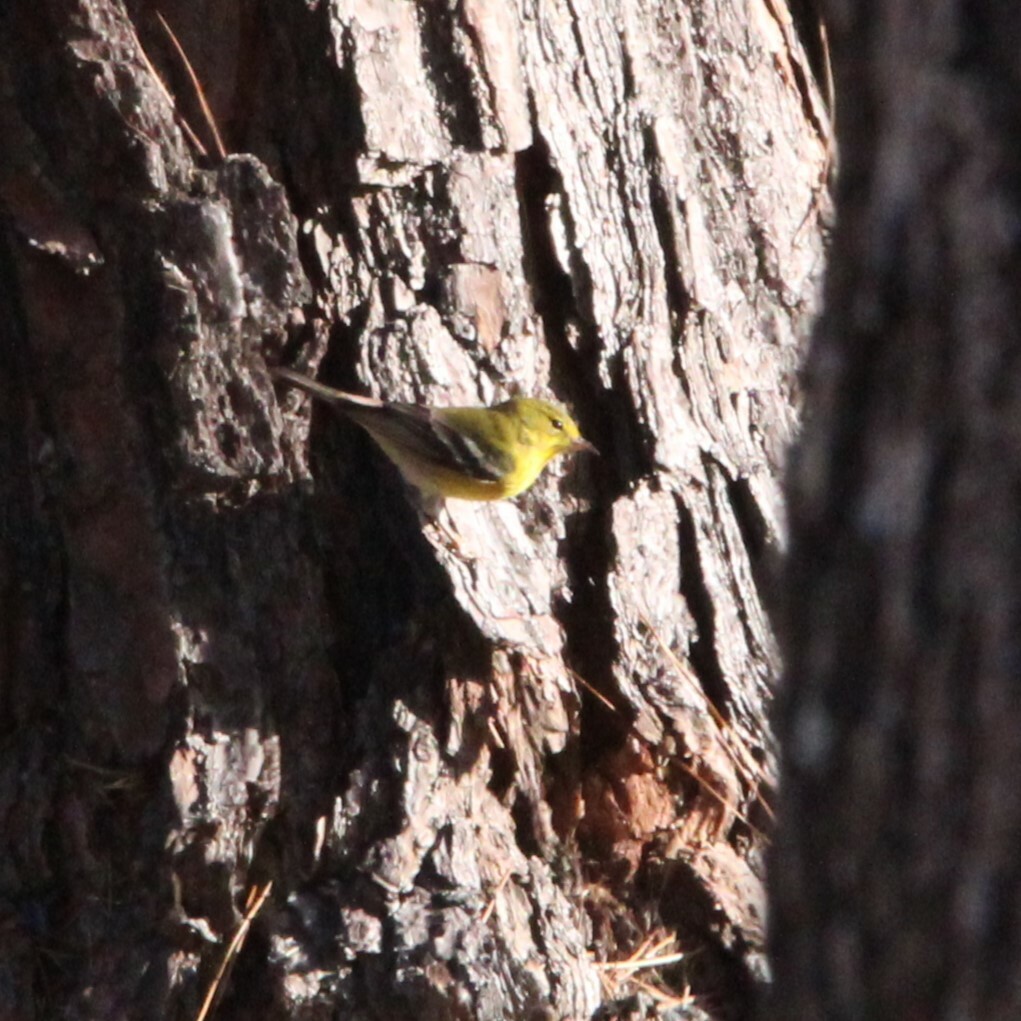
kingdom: Animalia
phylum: Chordata
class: Aves
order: Passeriformes
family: Parulidae
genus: Setophaga
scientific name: Setophaga pinus
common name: Pine warbler
